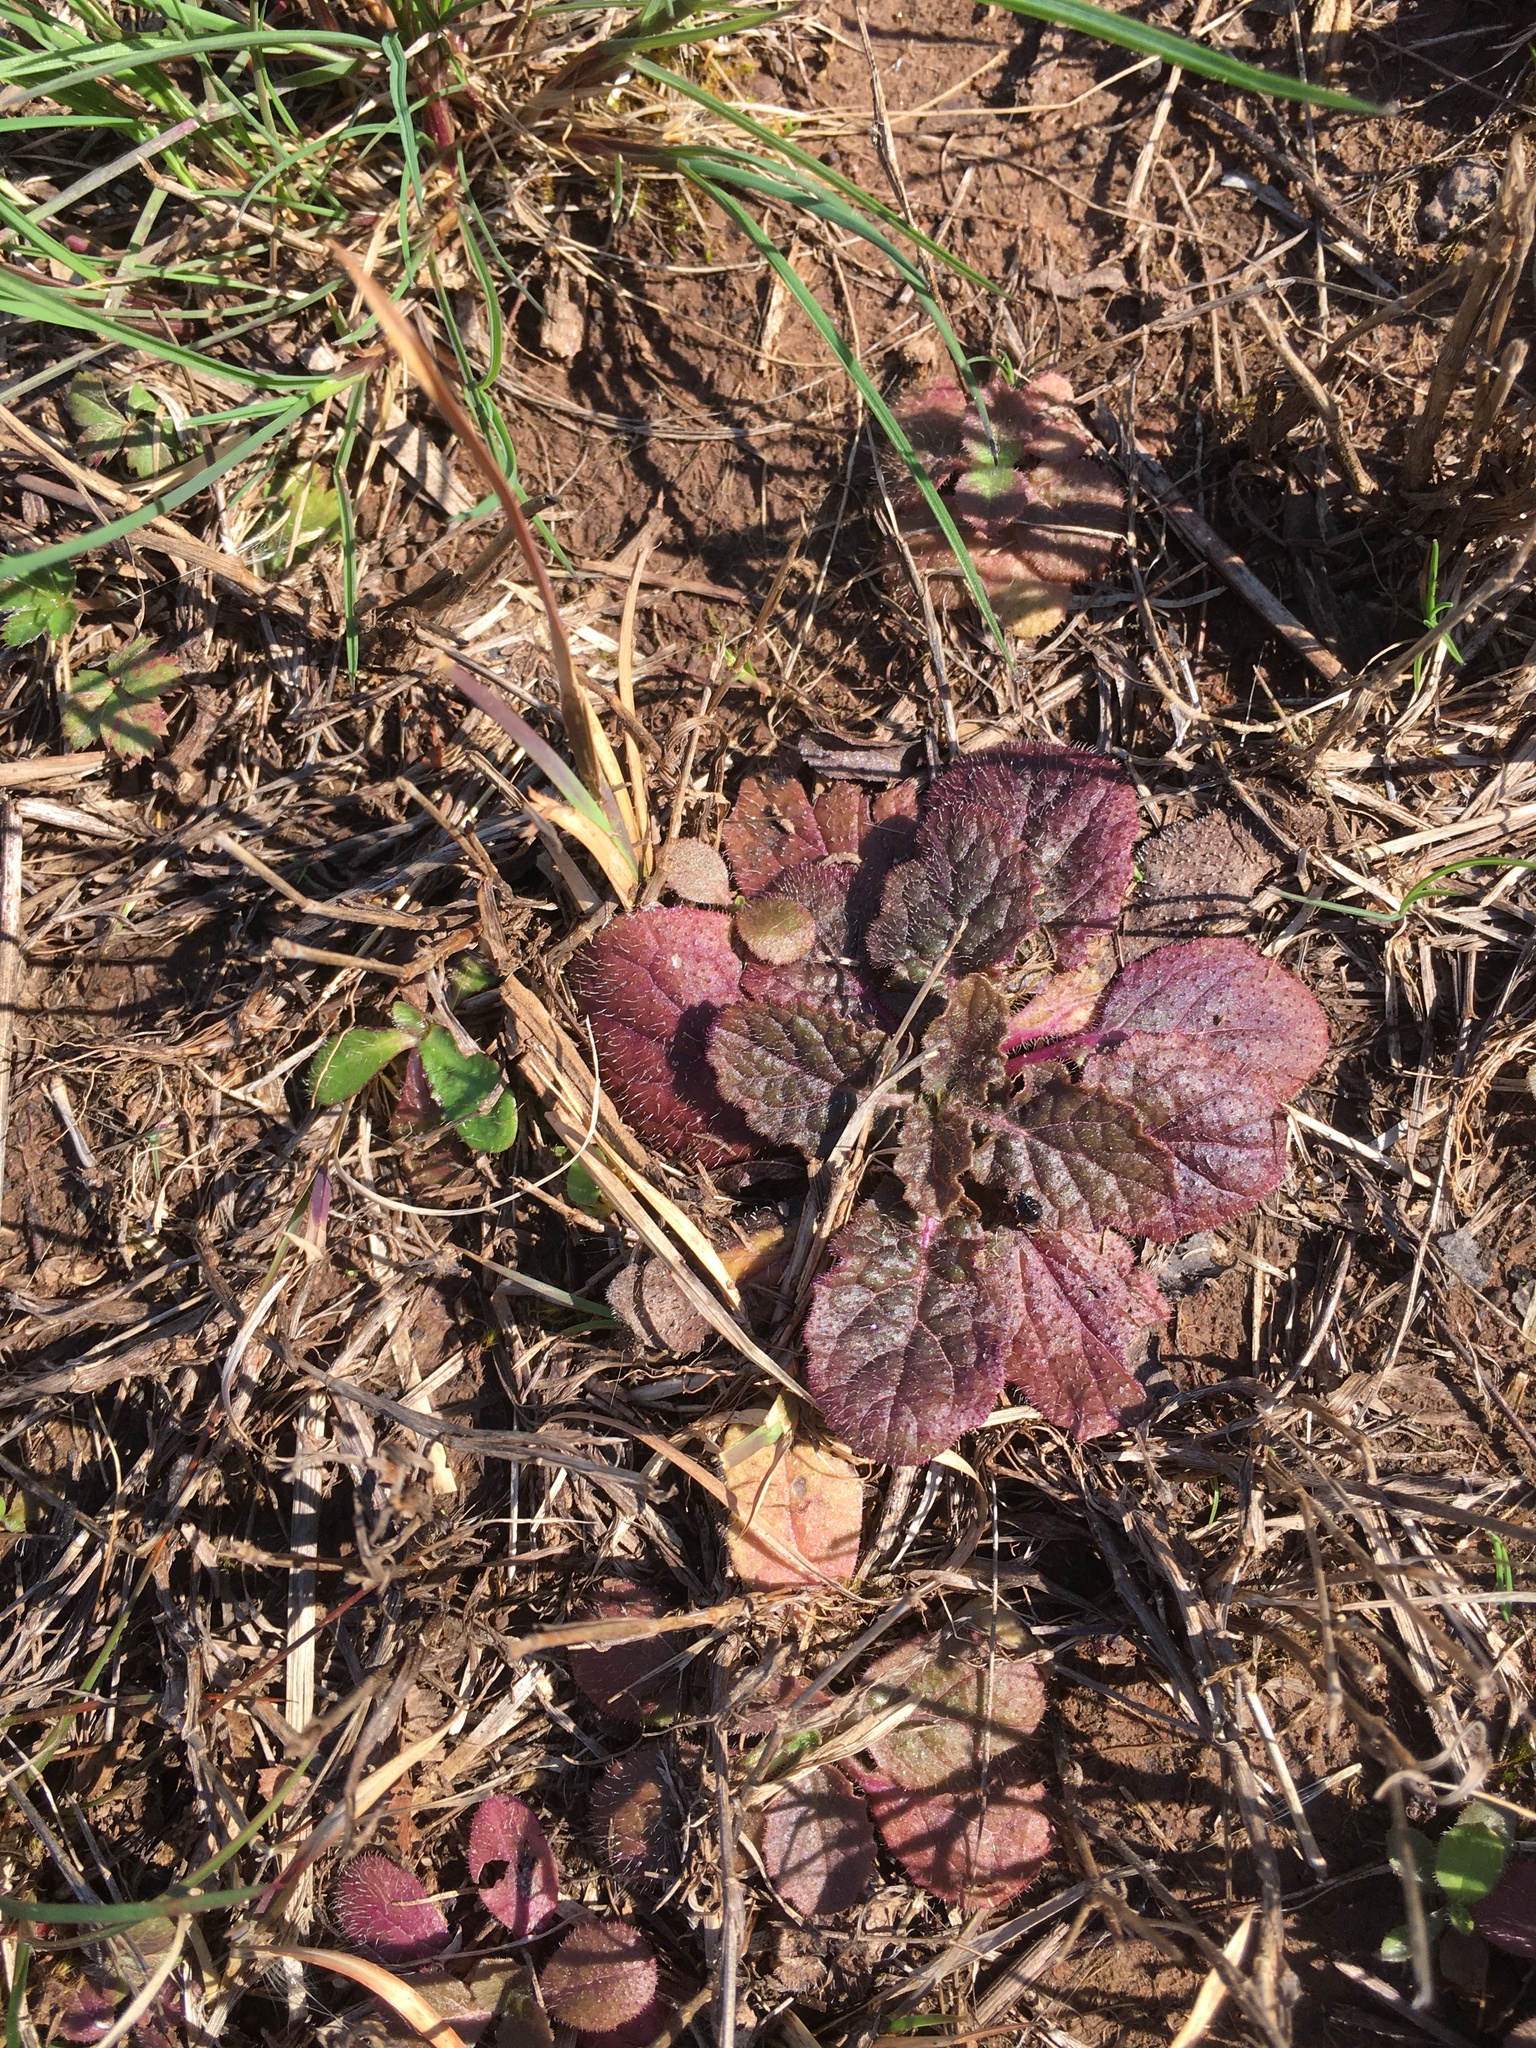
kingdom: Plantae
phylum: Tracheophyta
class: Magnoliopsida
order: Lamiales
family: Lamiaceae
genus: Salvia
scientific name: Salvia lyrata
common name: Cancerweed
